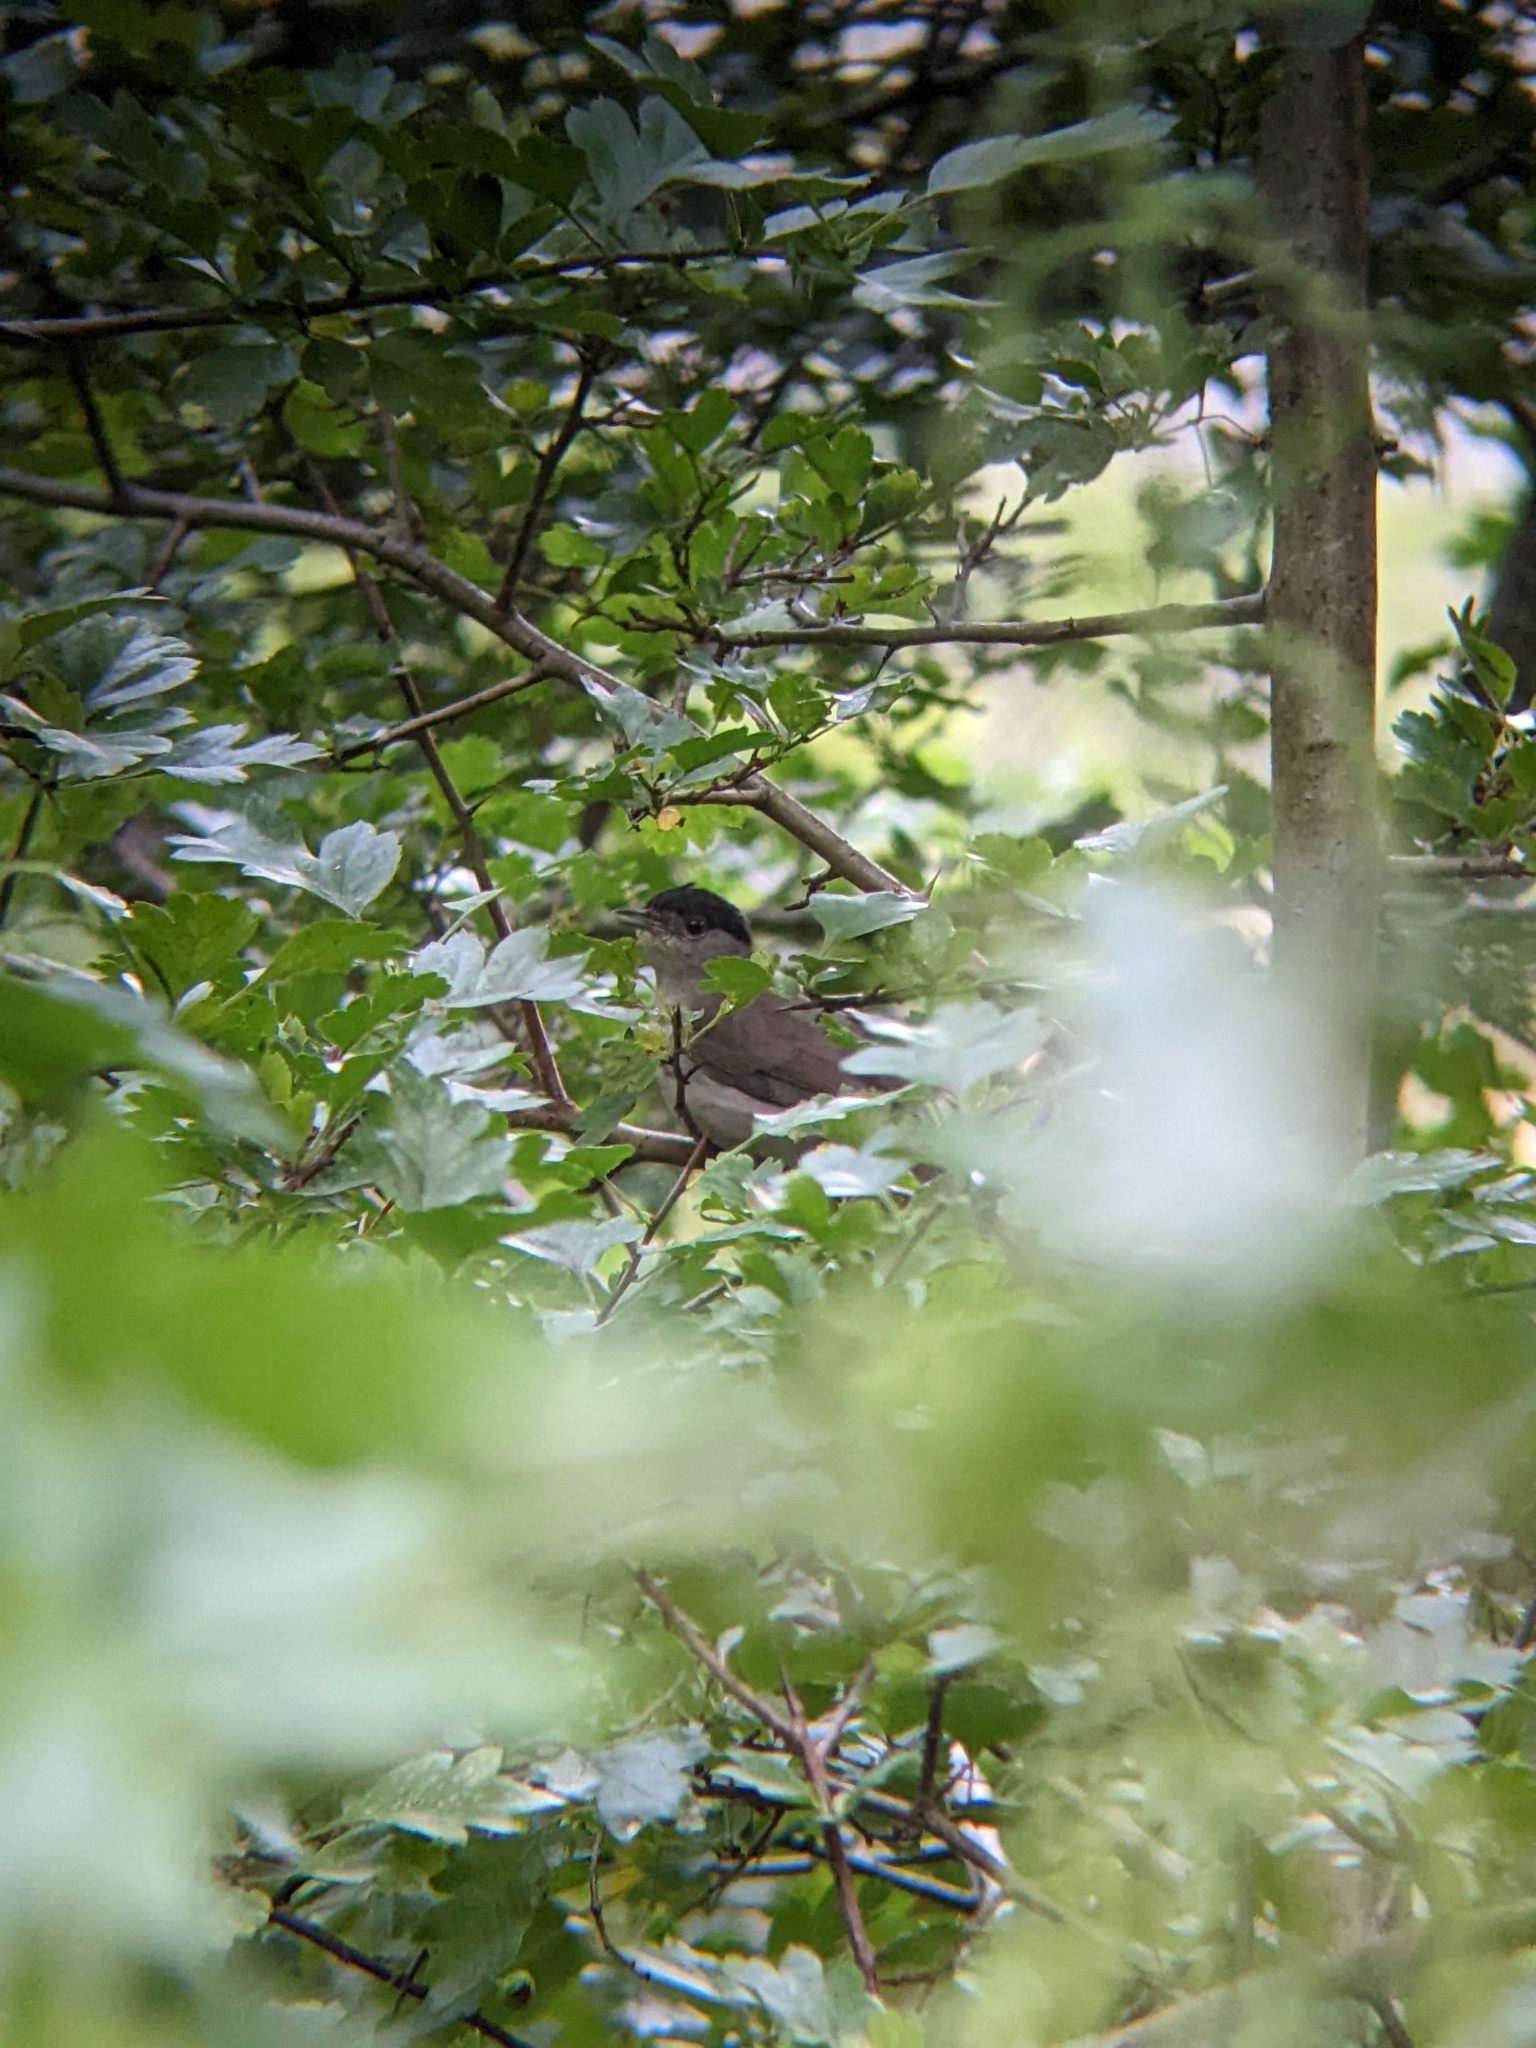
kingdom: Animalia
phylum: Chordata
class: Aves
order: Passeriformes
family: Sylviidae
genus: Sylvia
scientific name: Sylvia atricapilla
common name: Eurasian blackcap
